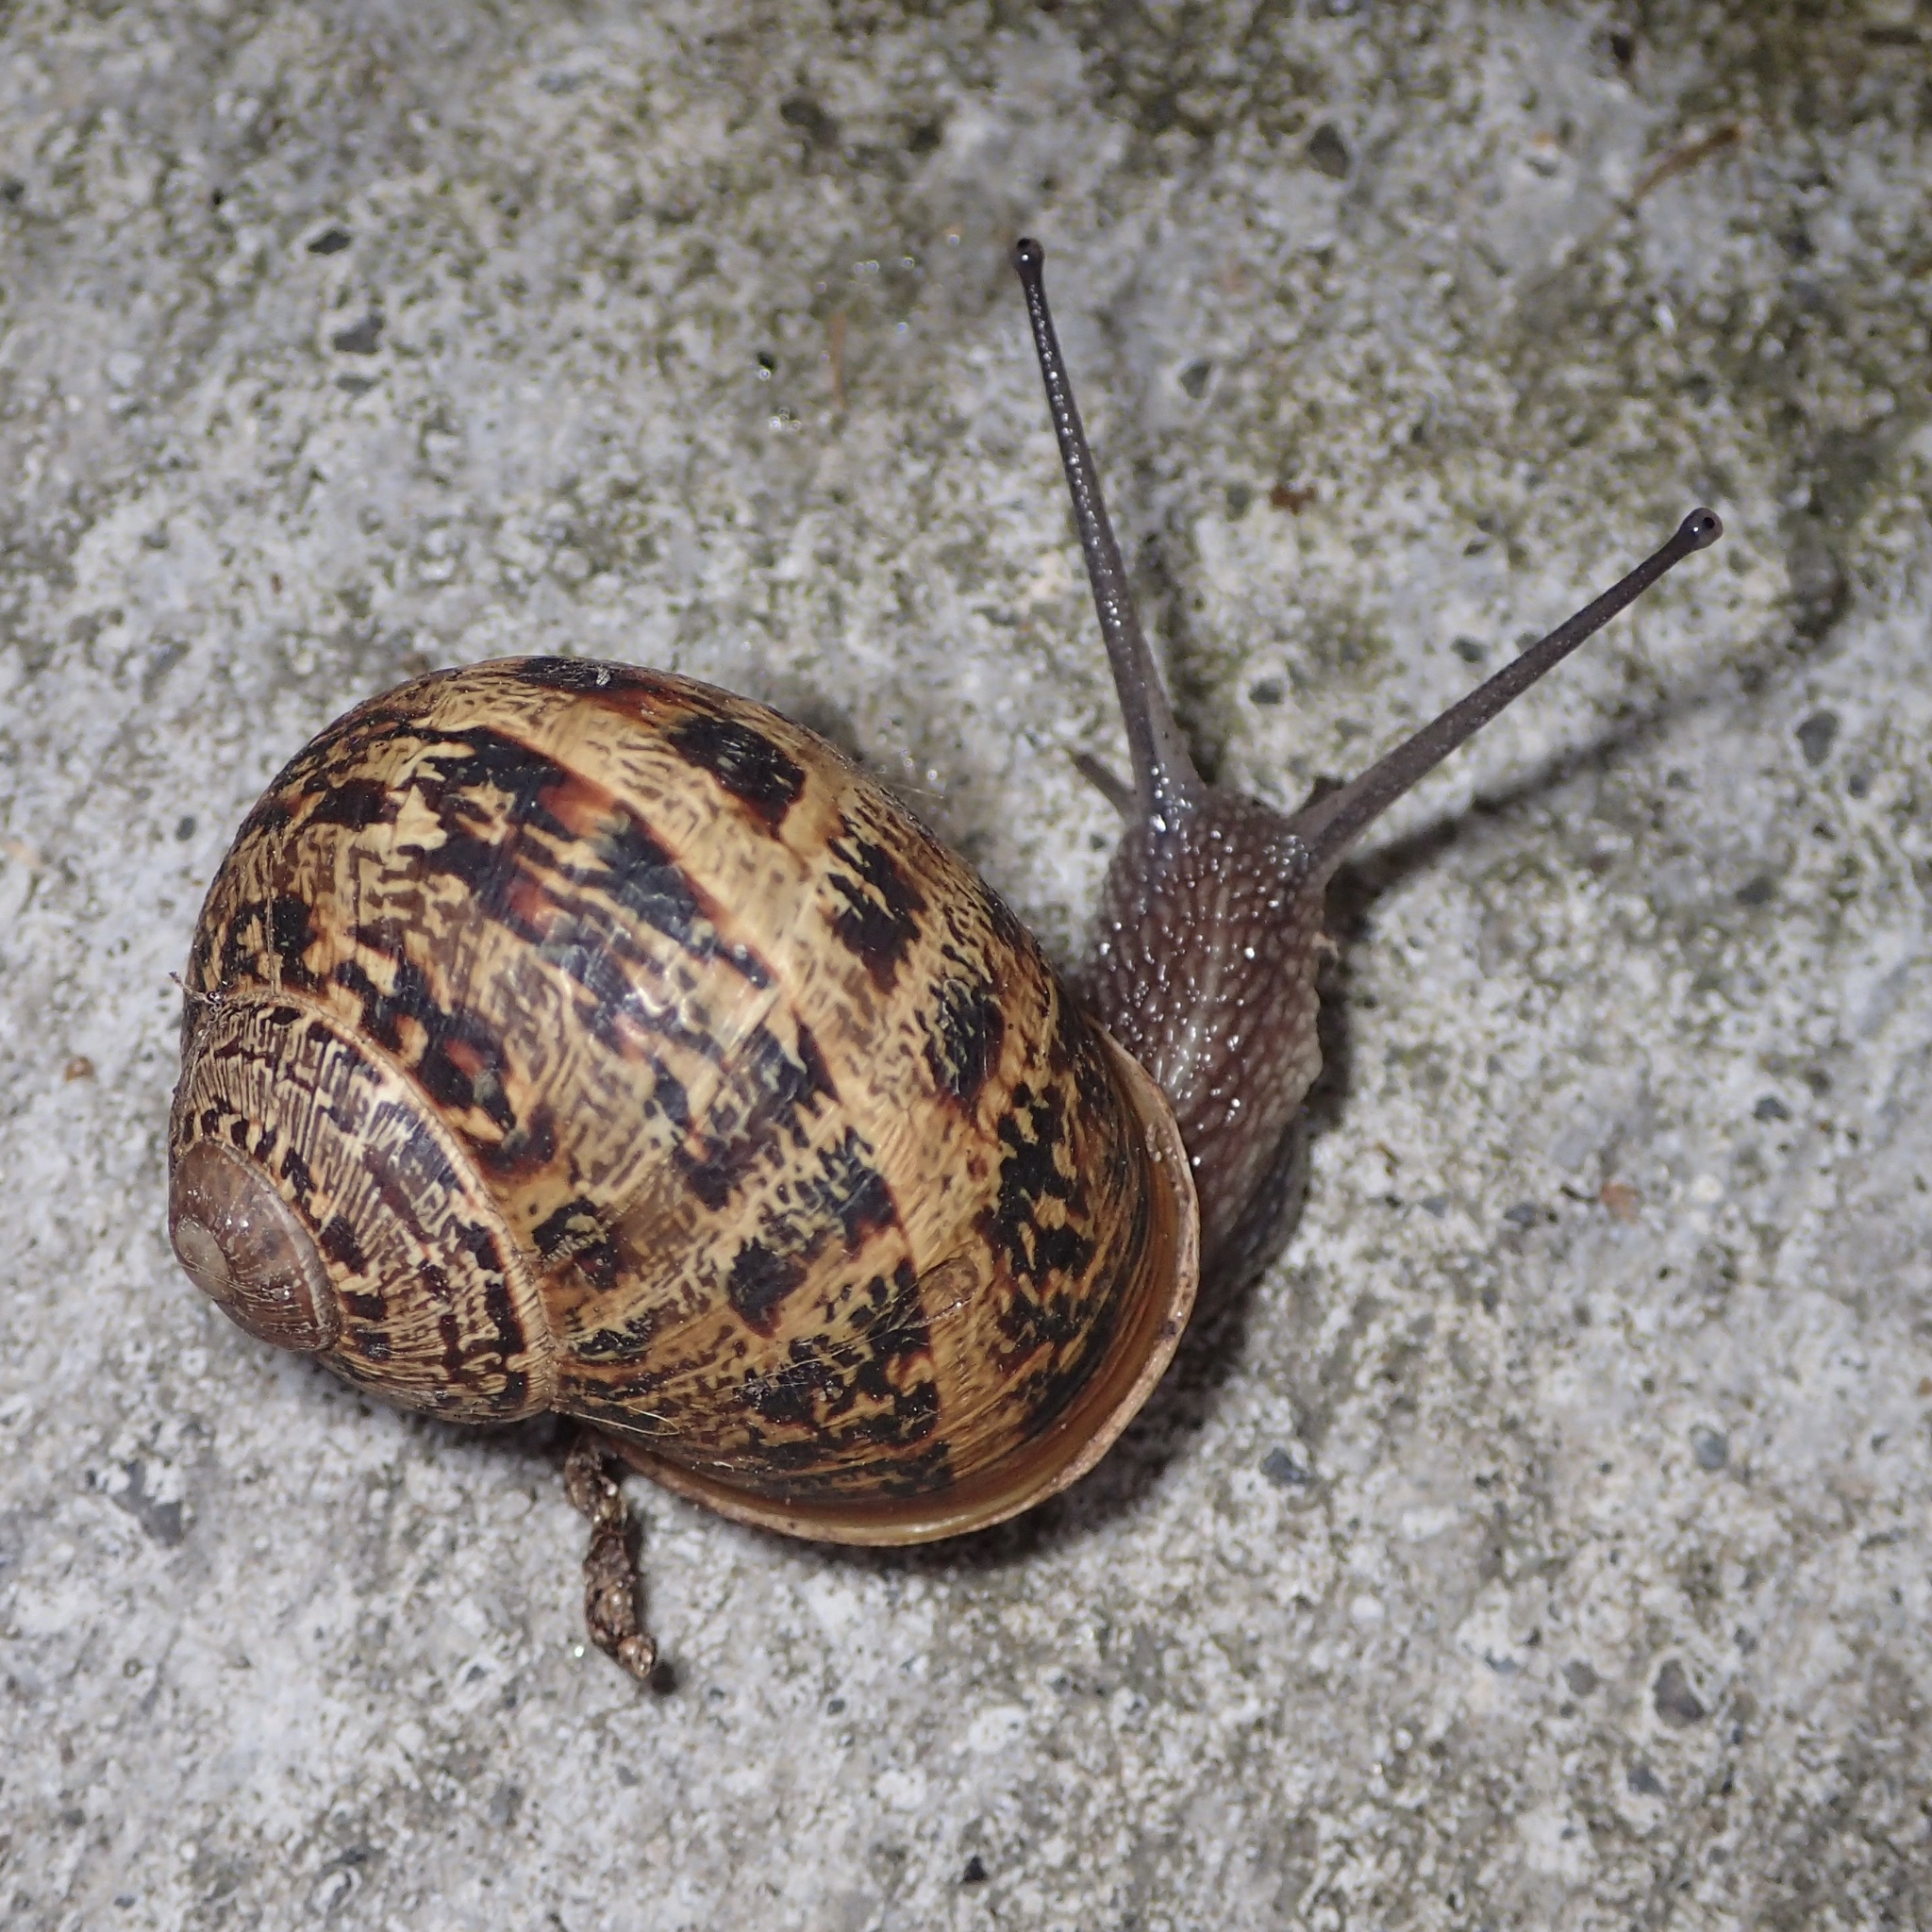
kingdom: Animalia
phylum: Mollusca
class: Gastropoda
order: Stylommatophora
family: Helicidae
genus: Cornu
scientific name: Cornu aspersum
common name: Brown garden snail
